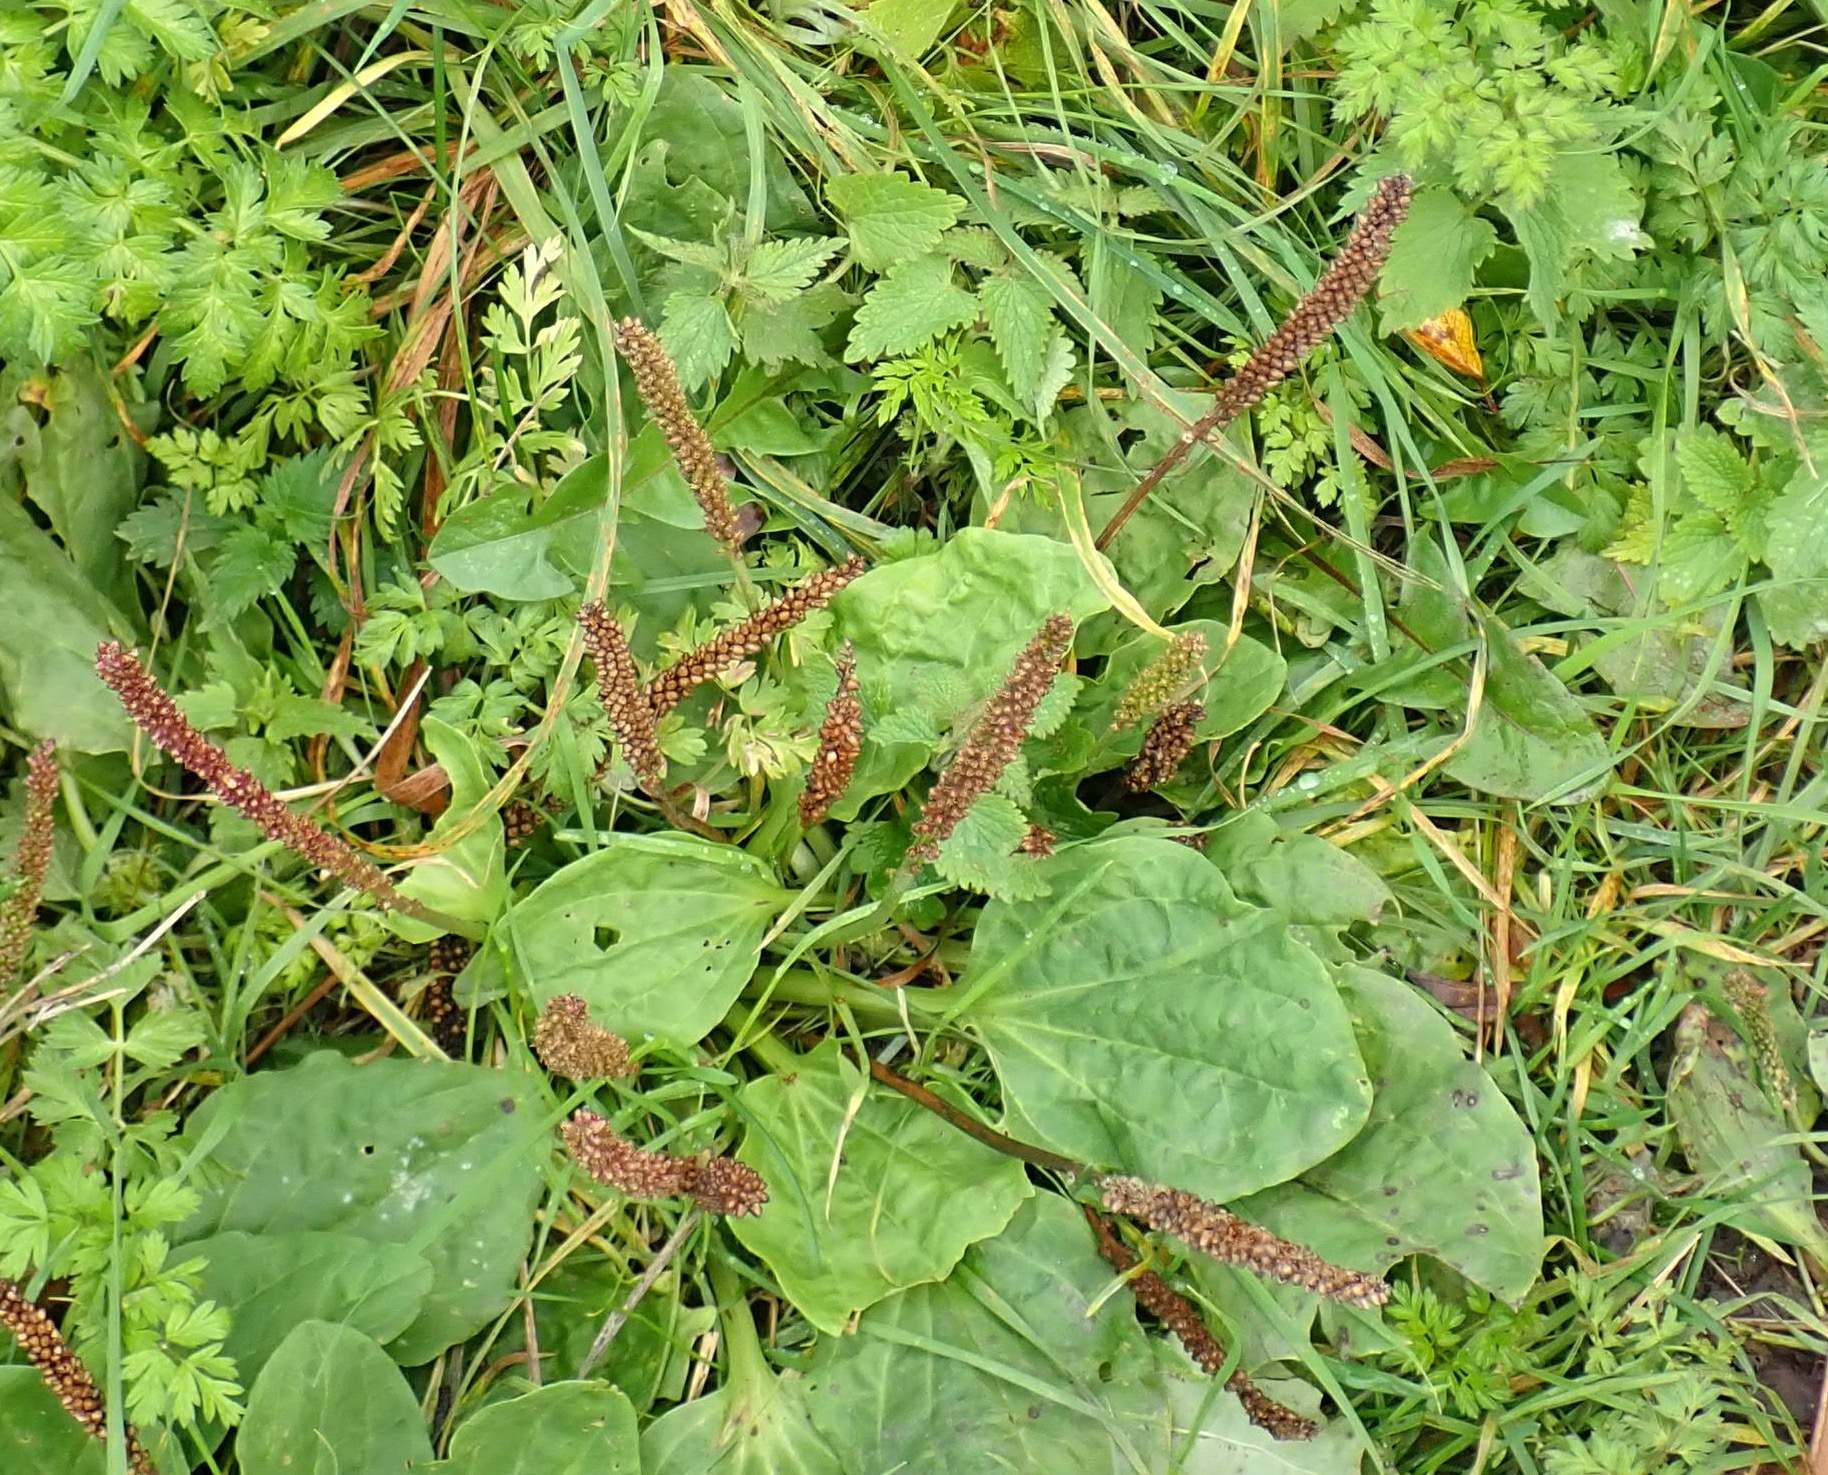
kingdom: Plantae
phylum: Tracheophyta
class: Magnoliopsida
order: Lamiales
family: Plantaginaceae
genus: Plantago
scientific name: Plantago major
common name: Common plantain
